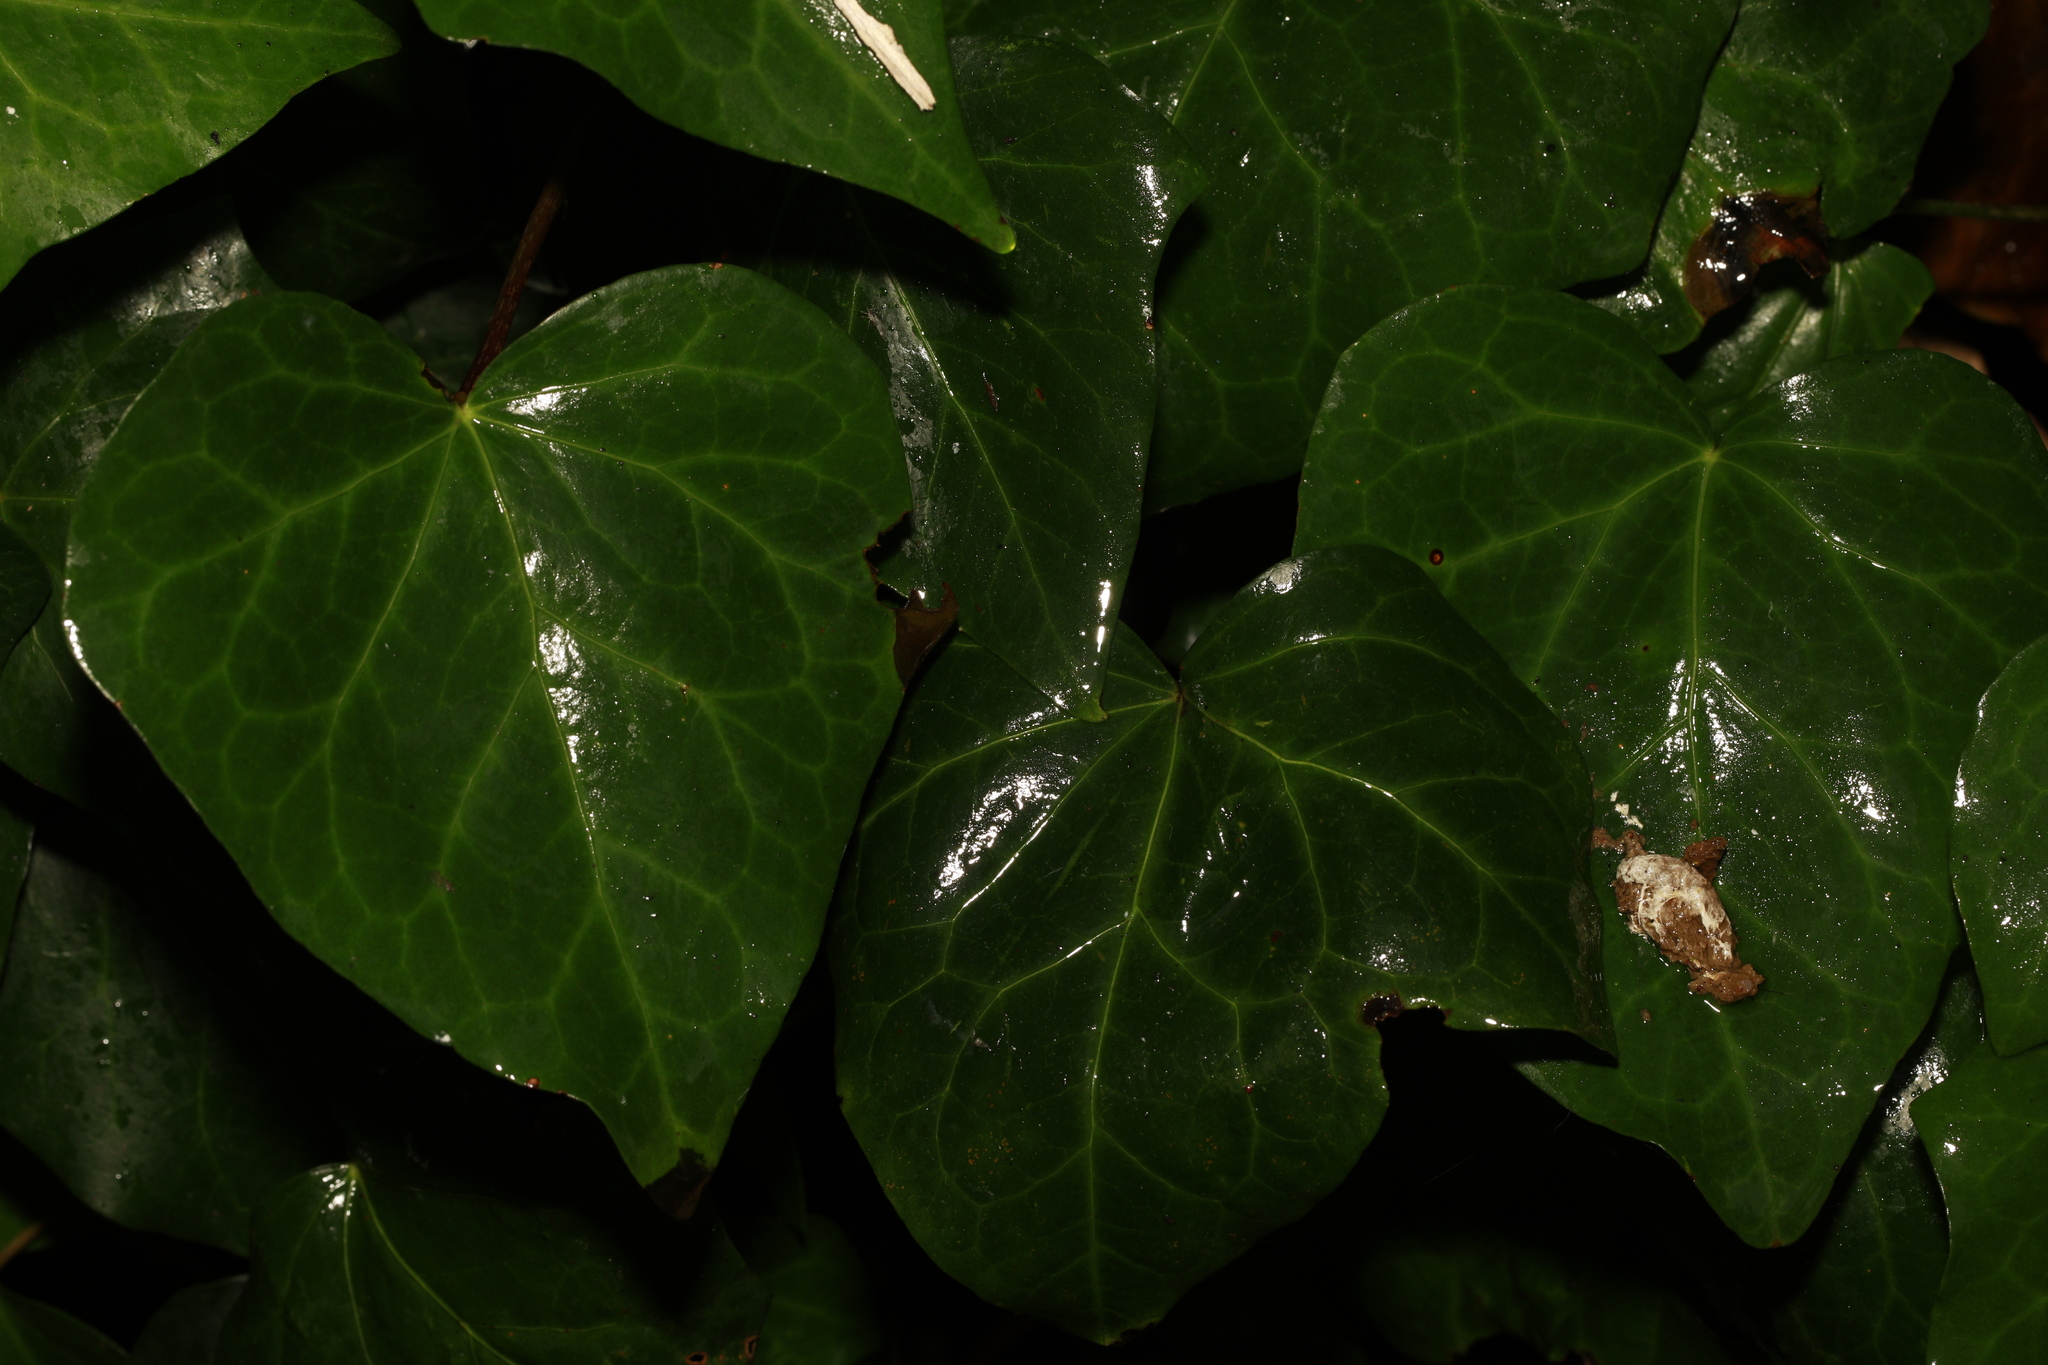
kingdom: Plantae
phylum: Tracheophyta
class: Magnoliopsida
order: Apiales
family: Araliaceae
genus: Hedera
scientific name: Hedera helix
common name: Ivy
